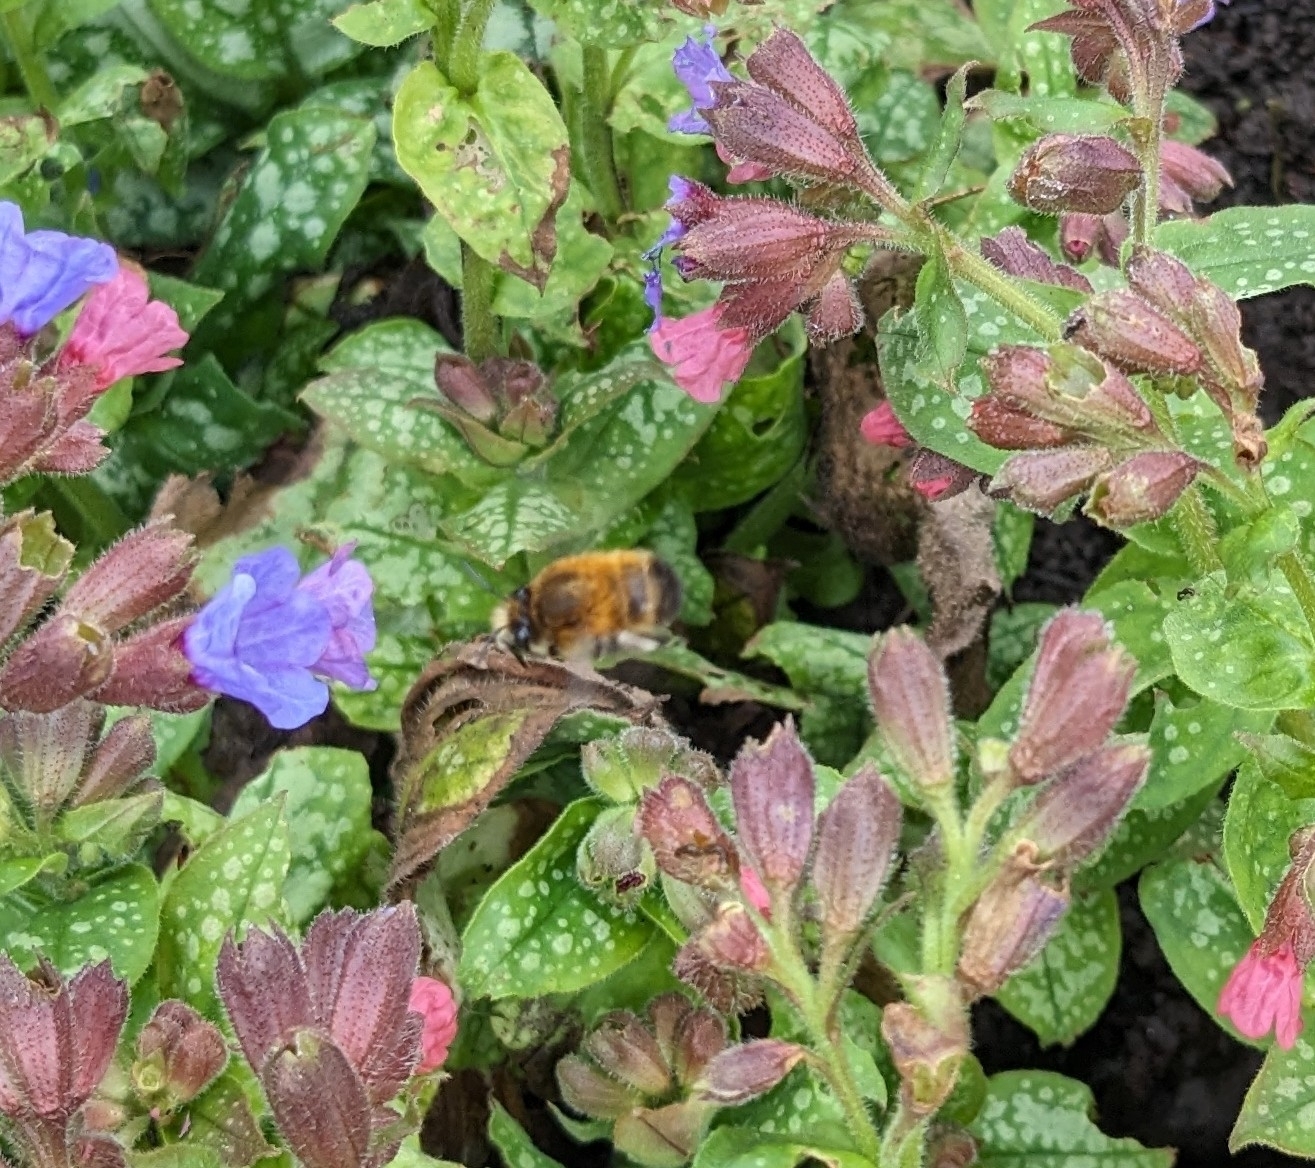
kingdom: Animalia
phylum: Arthropoda
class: Insecta
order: Hymenoptera
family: Apidae
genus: Anthophora
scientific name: Anthophora plumipes
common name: Hairy-footed flower bee
